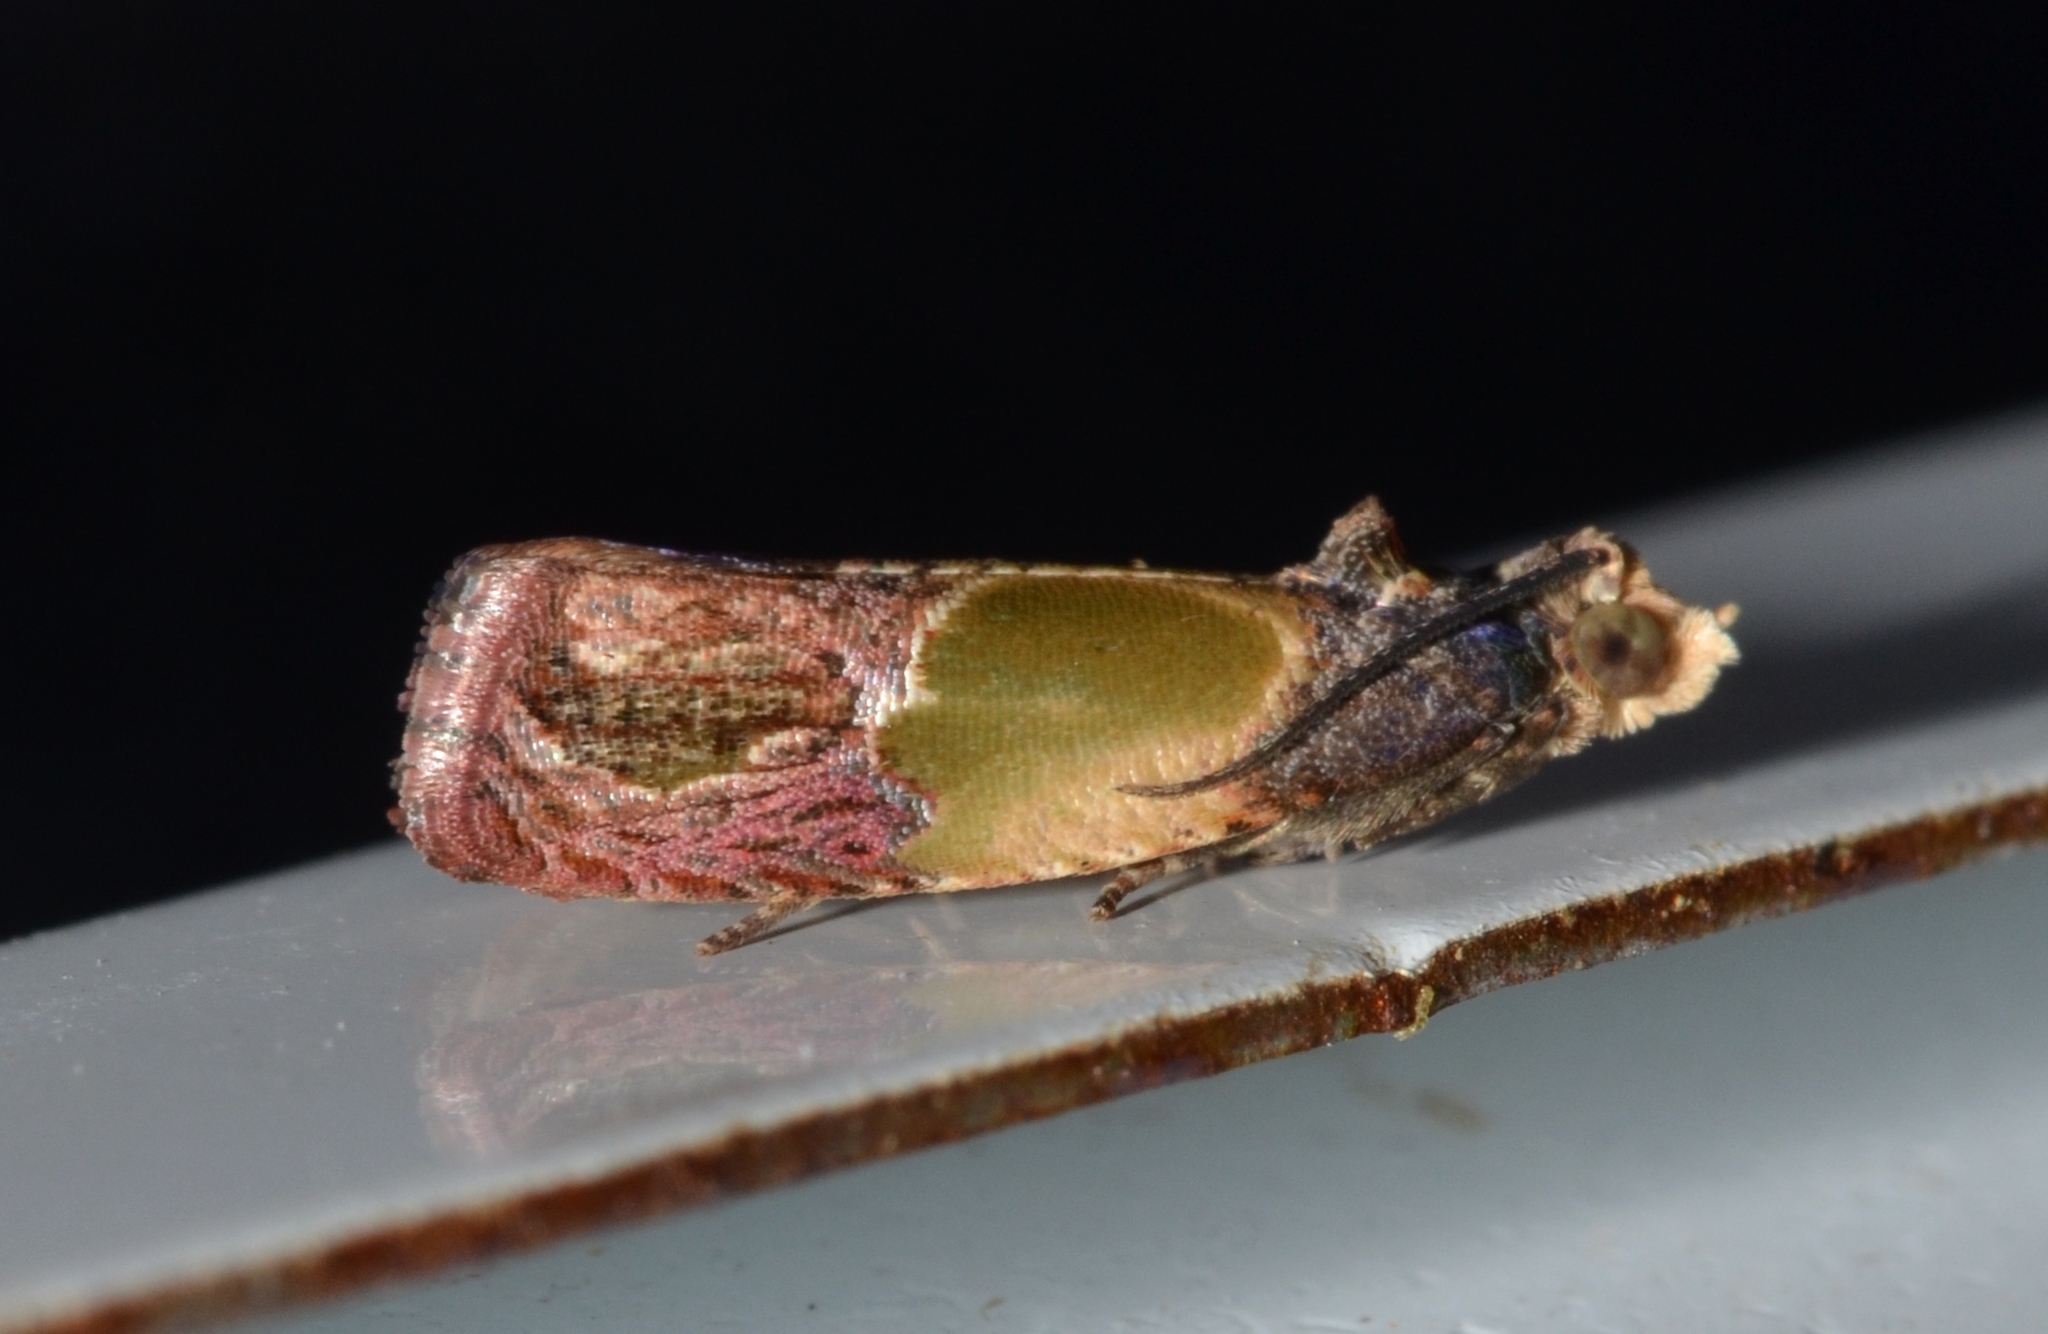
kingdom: Animalia
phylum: Arthropoda
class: Insecta
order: Lepidoptera
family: Tortricidae
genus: Eumarozia
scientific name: Eumarozia malachitana
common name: Sculptured moth
